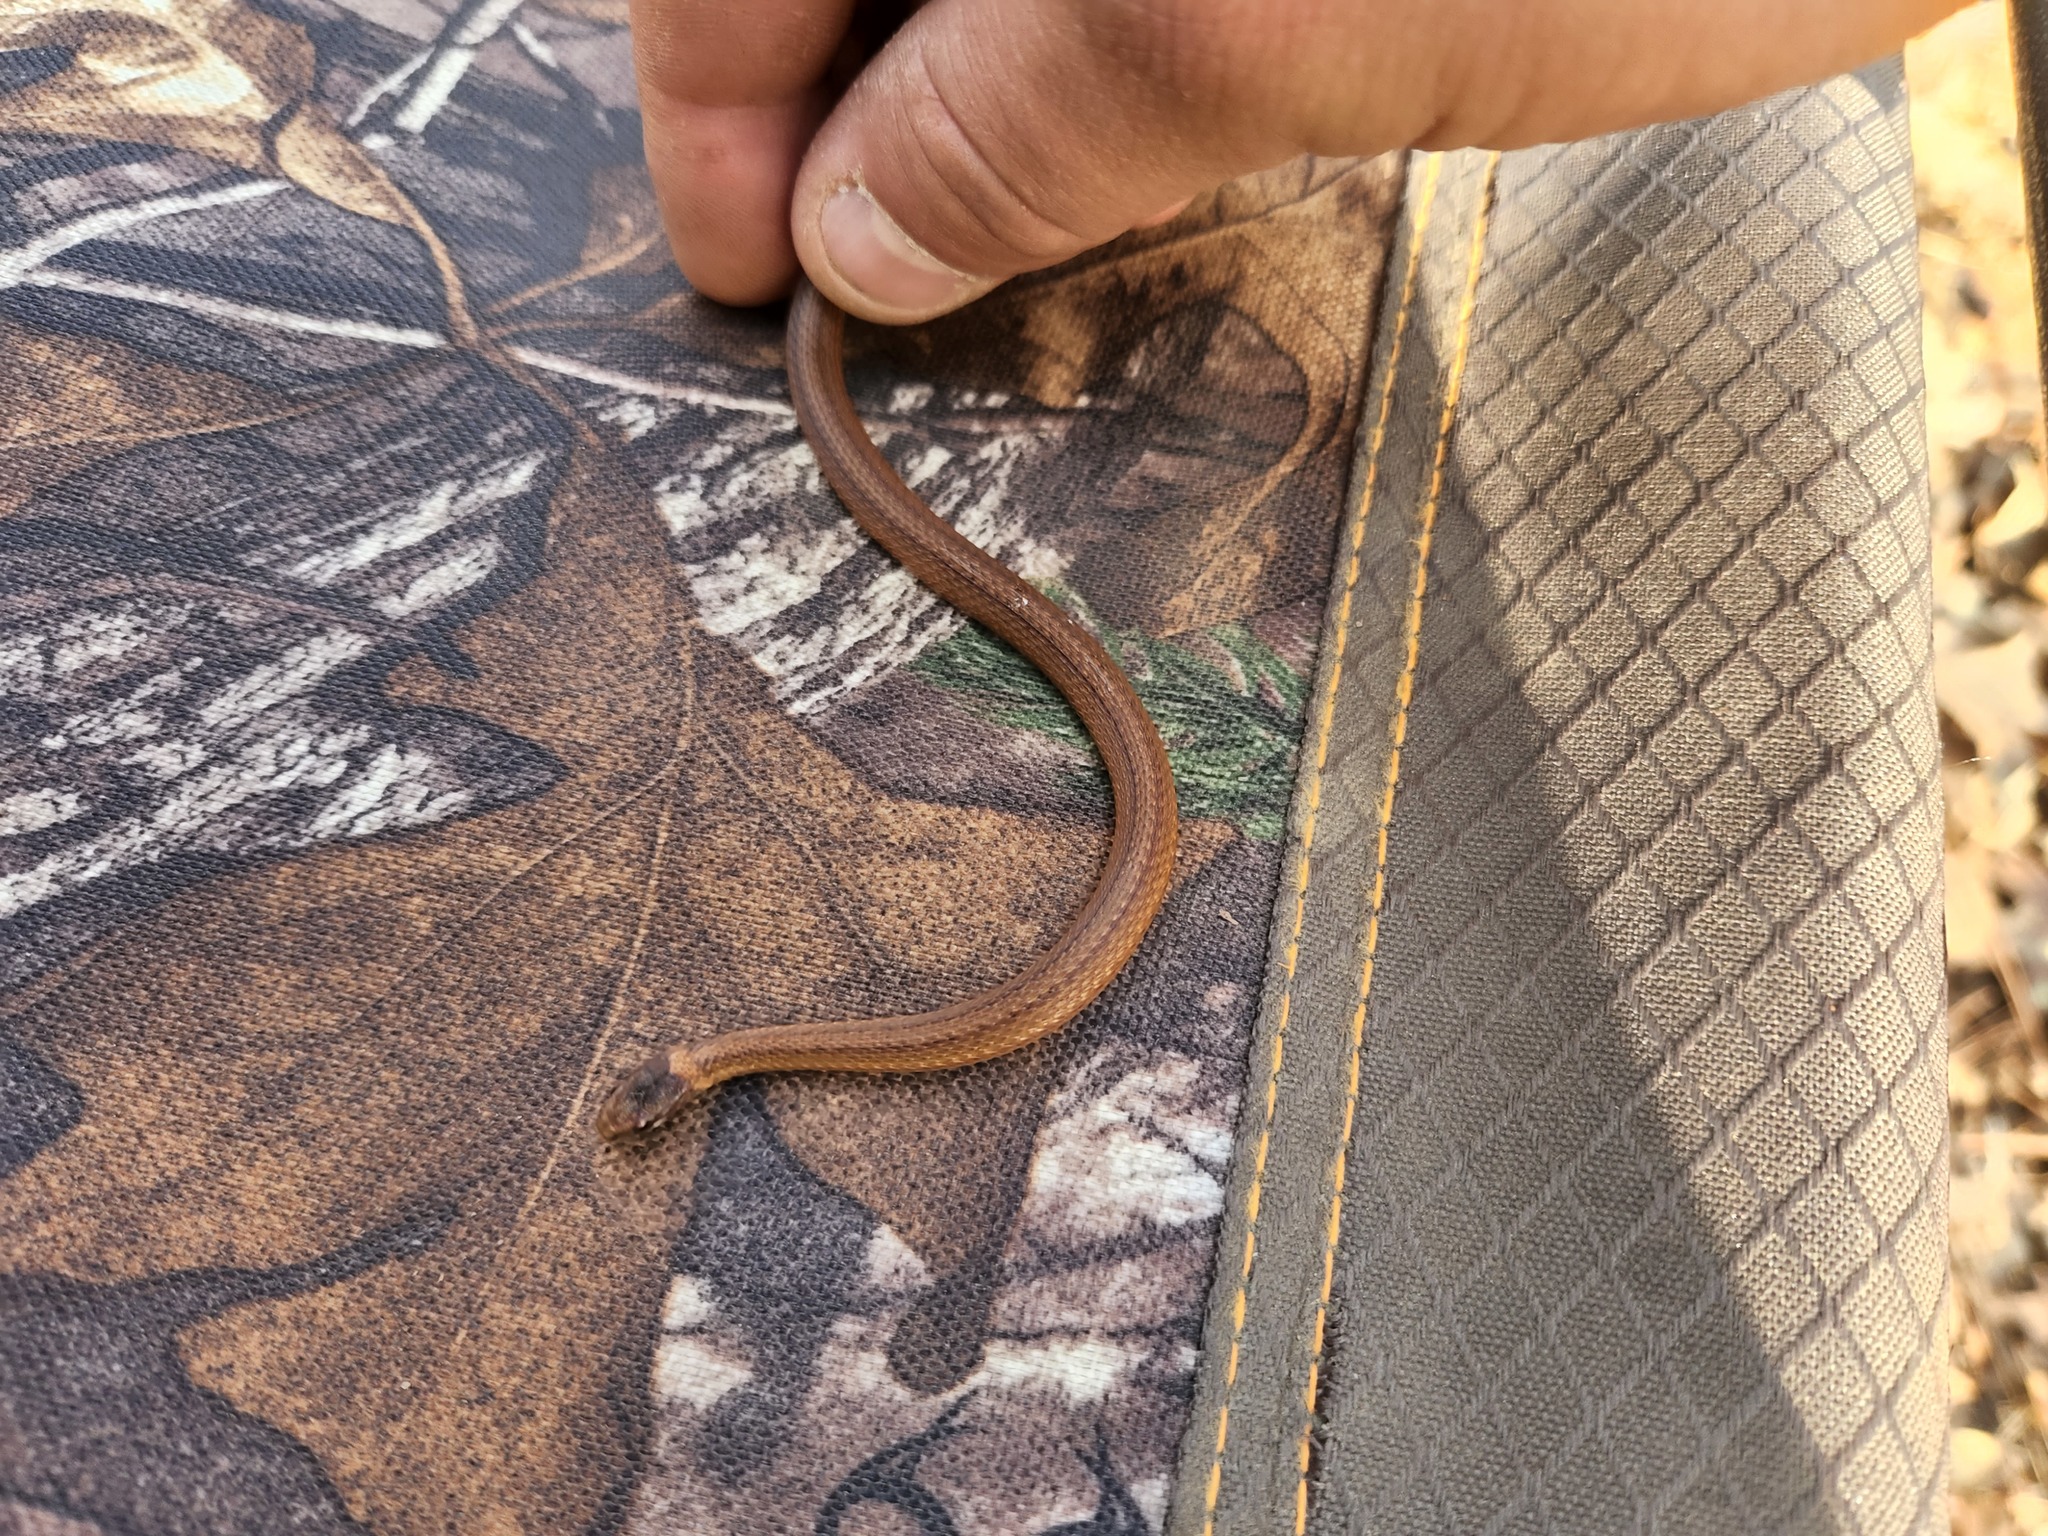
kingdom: Animalia
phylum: Chordata
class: Squamata
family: Colubridae
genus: Storeria
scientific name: Storeria occipitomaculata
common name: Redbelly snake
